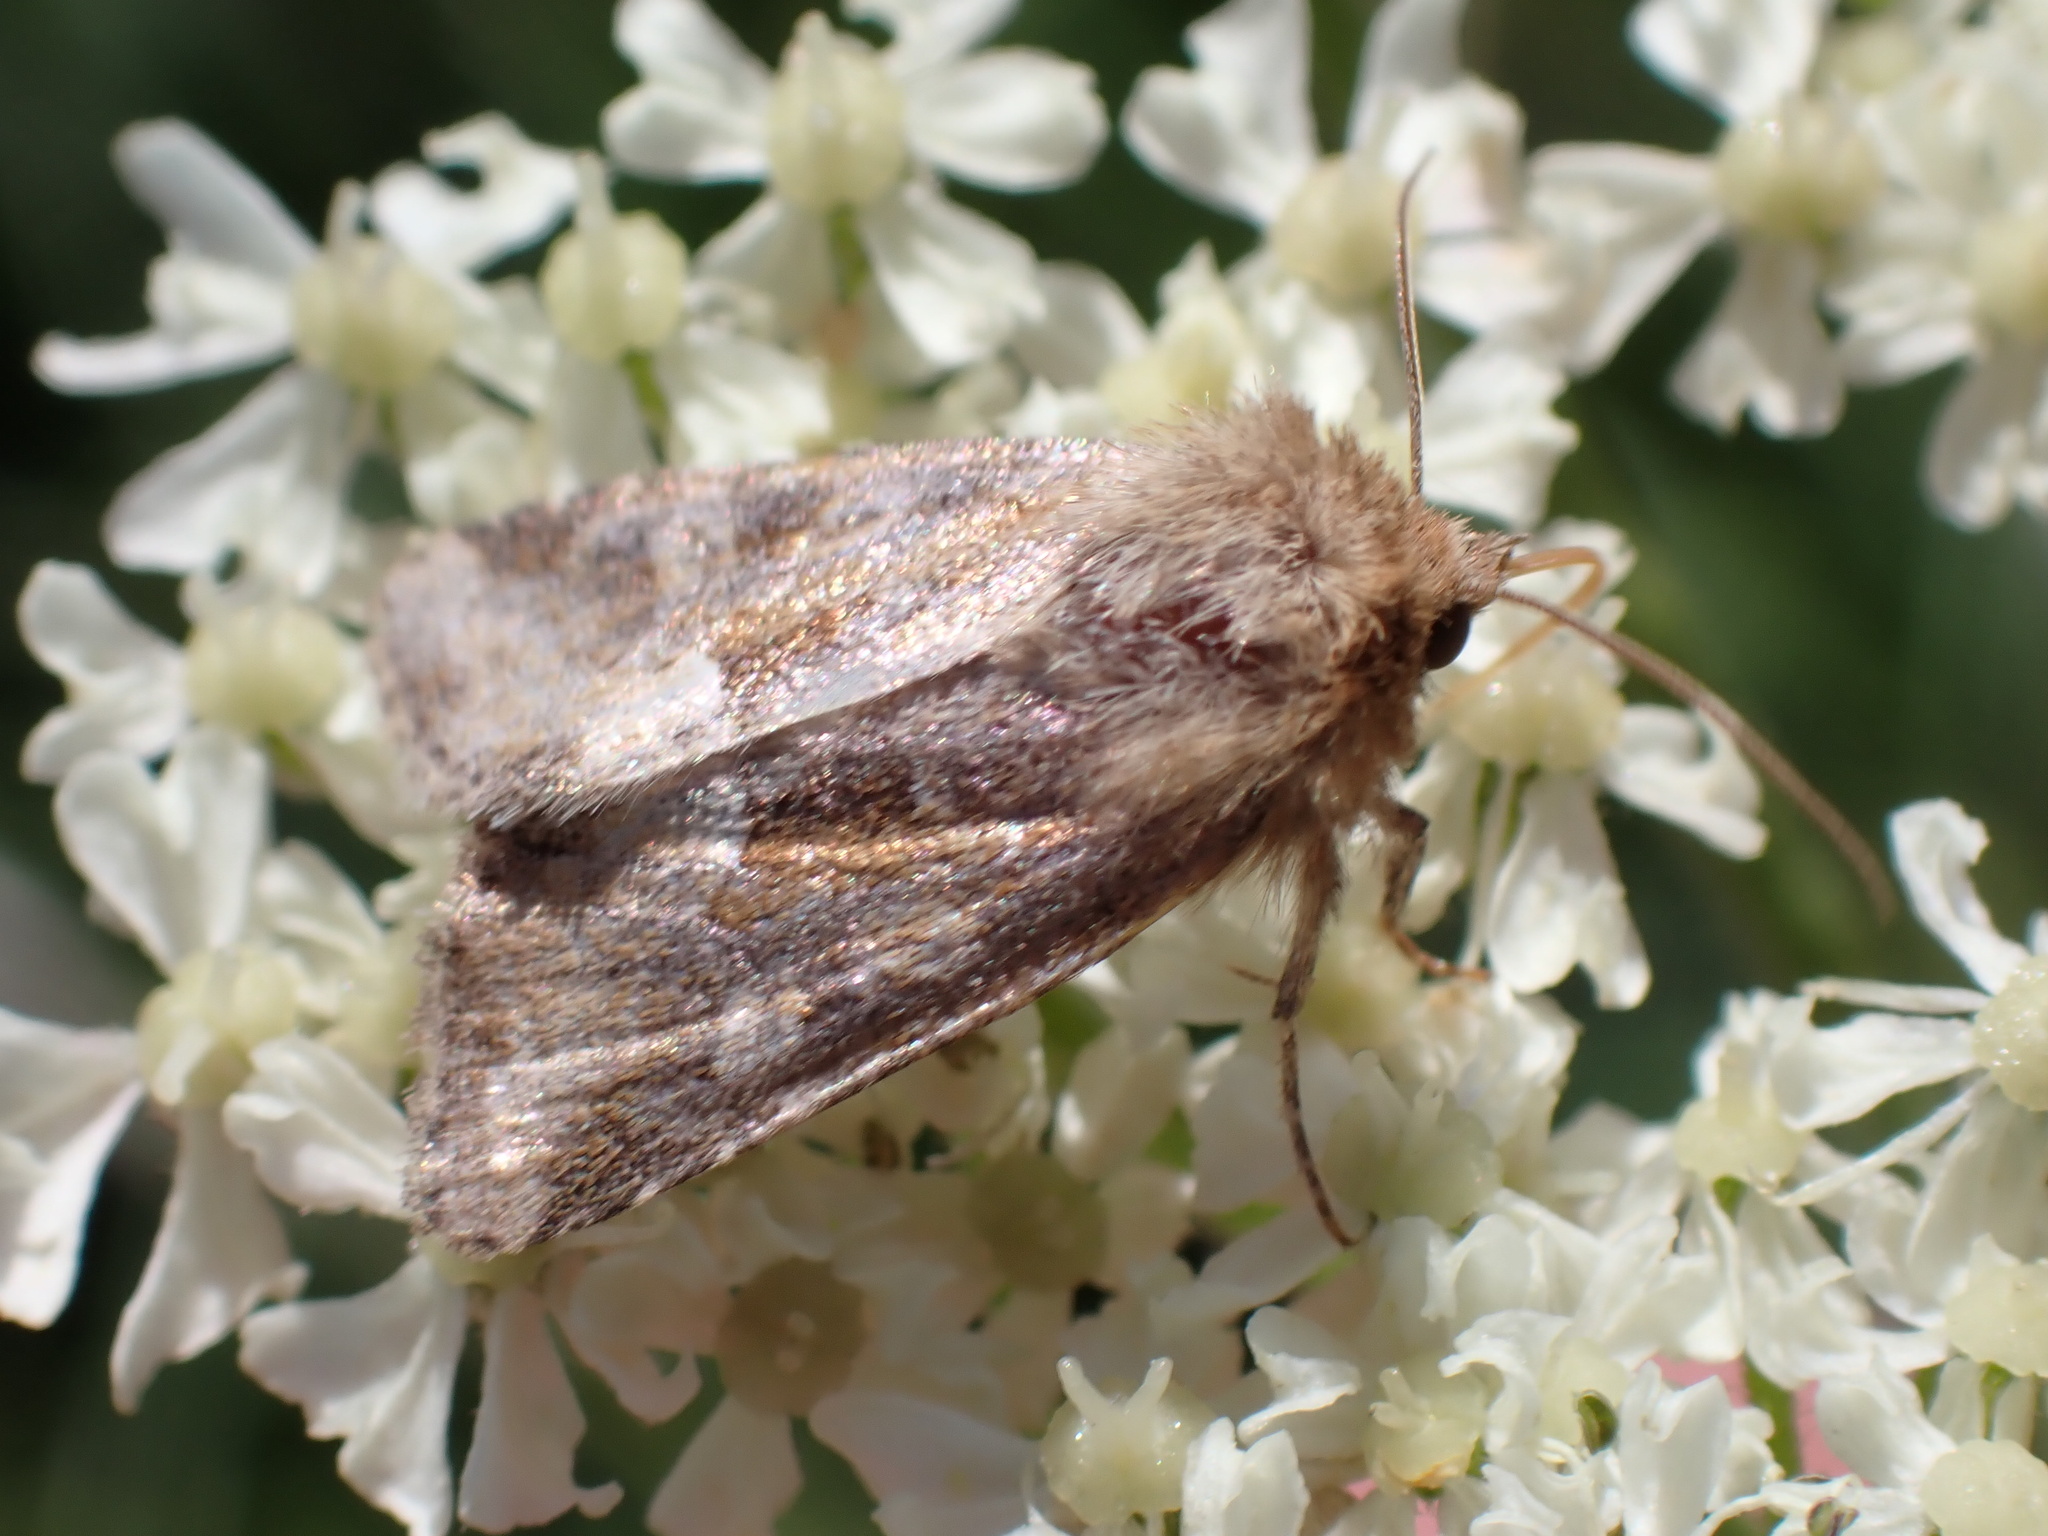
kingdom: Animalia
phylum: Arthropoda
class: Insecta
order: Lepidoptera
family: Noctuidae
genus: Oligia
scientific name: Oligia fasciuncula
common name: Middle-barred minor
